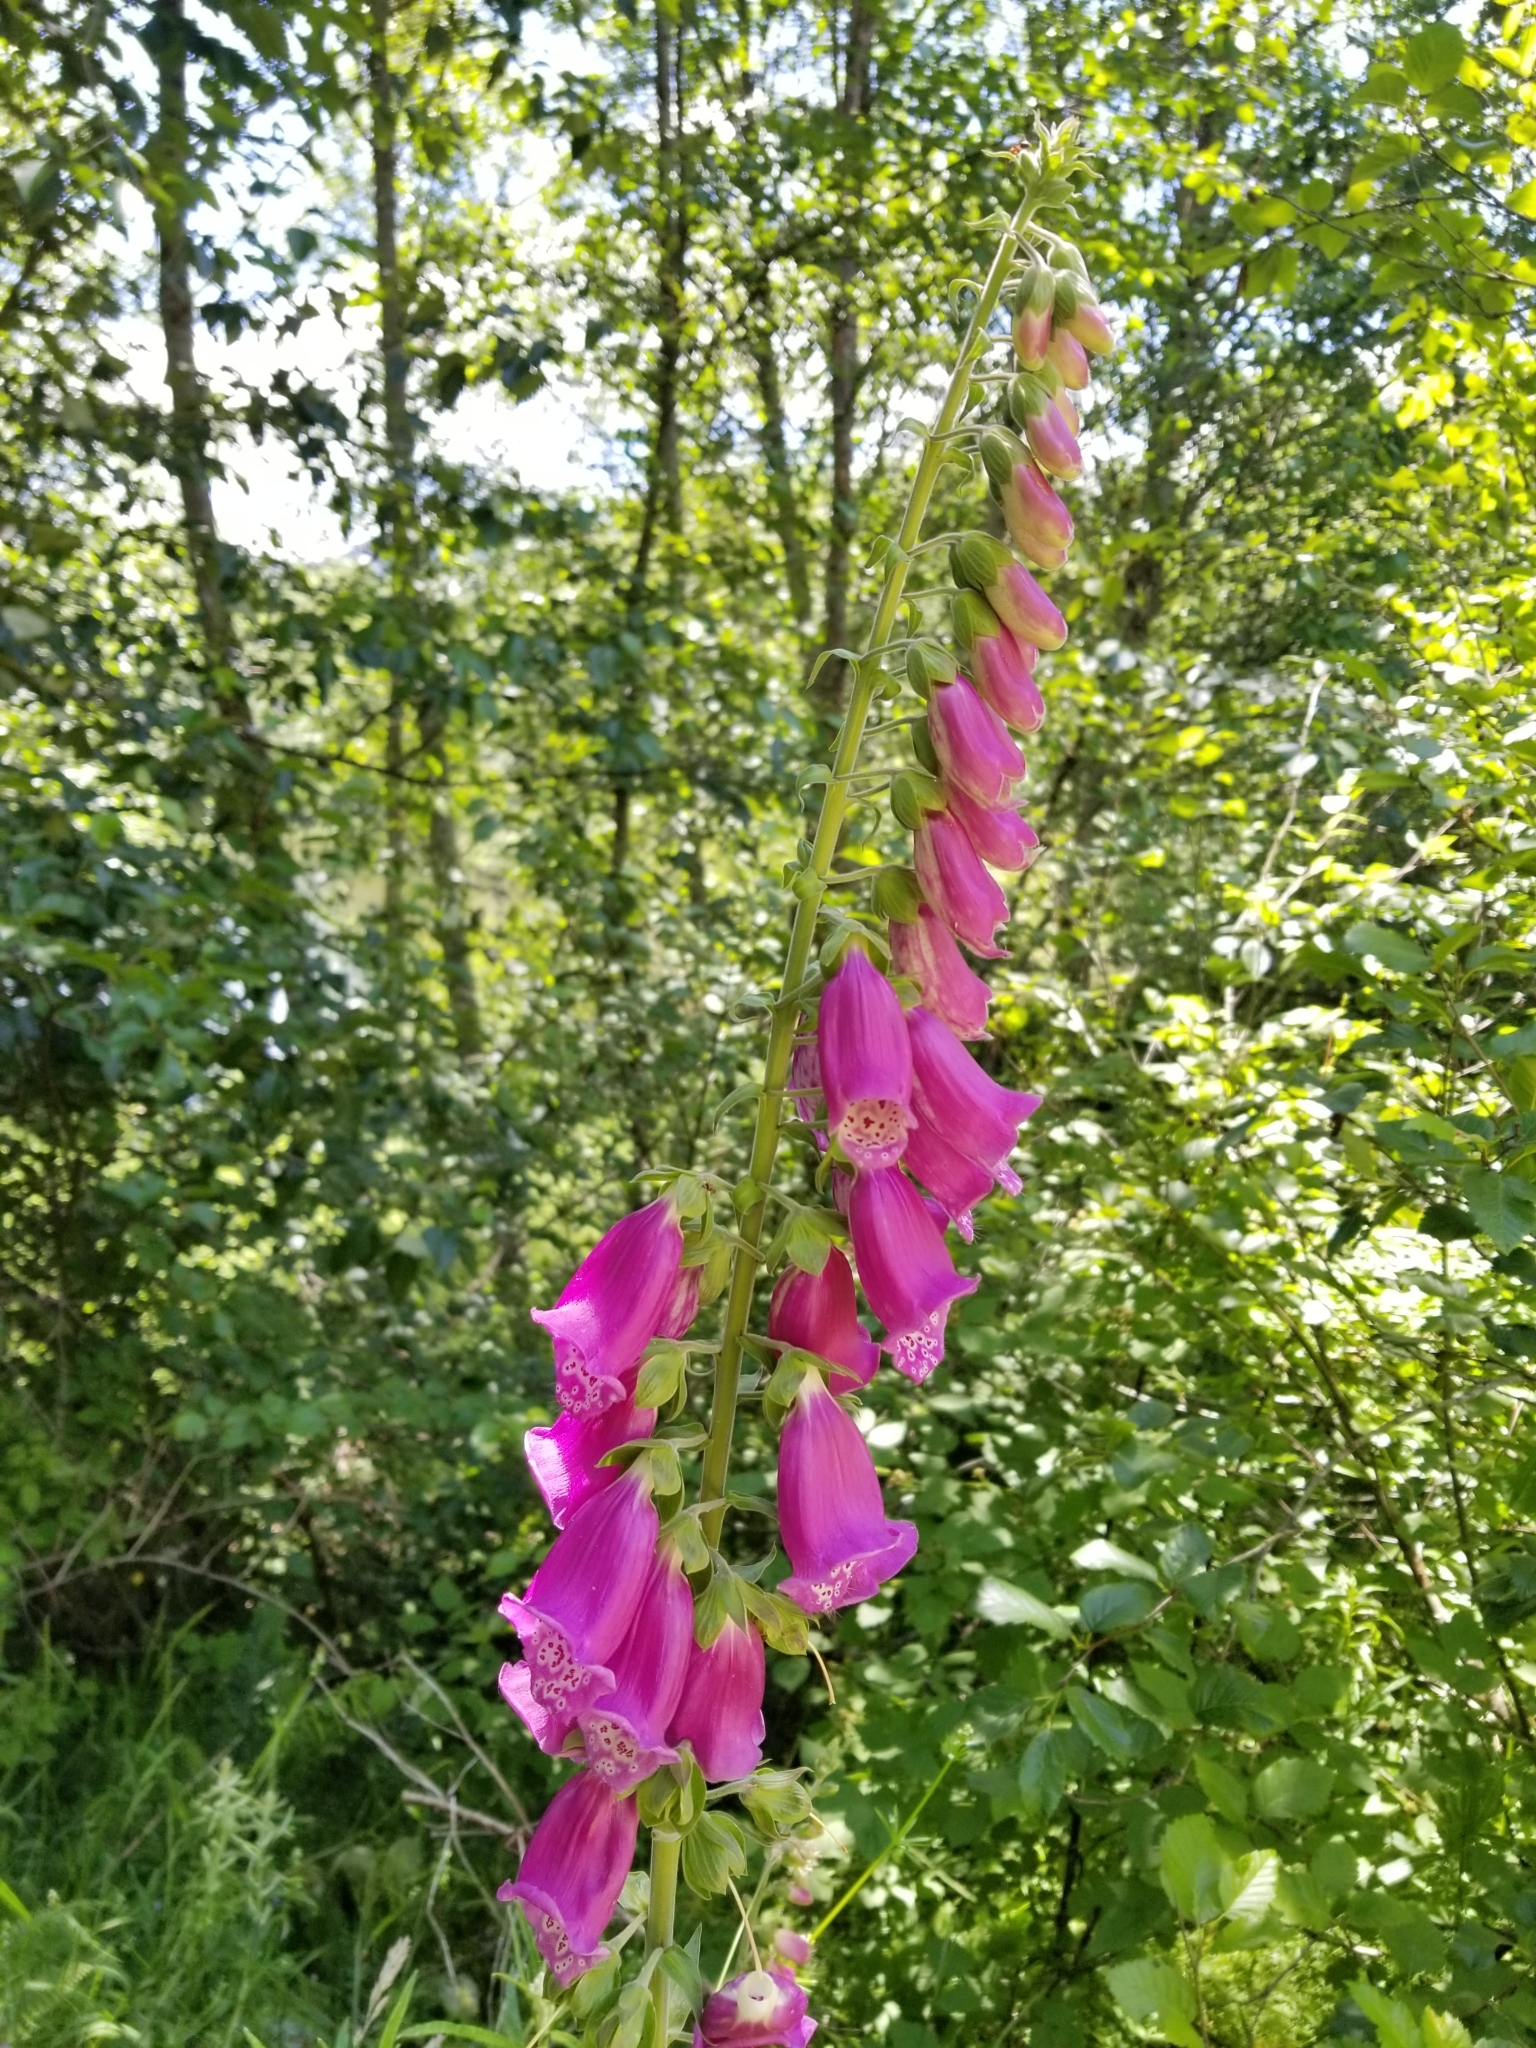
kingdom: Plantae
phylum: Tracheophyta
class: Magnoliopsida
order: Lamiales
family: Plantaginaceae
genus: Digitalis
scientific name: Digitalis purpurea
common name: Foxglove
